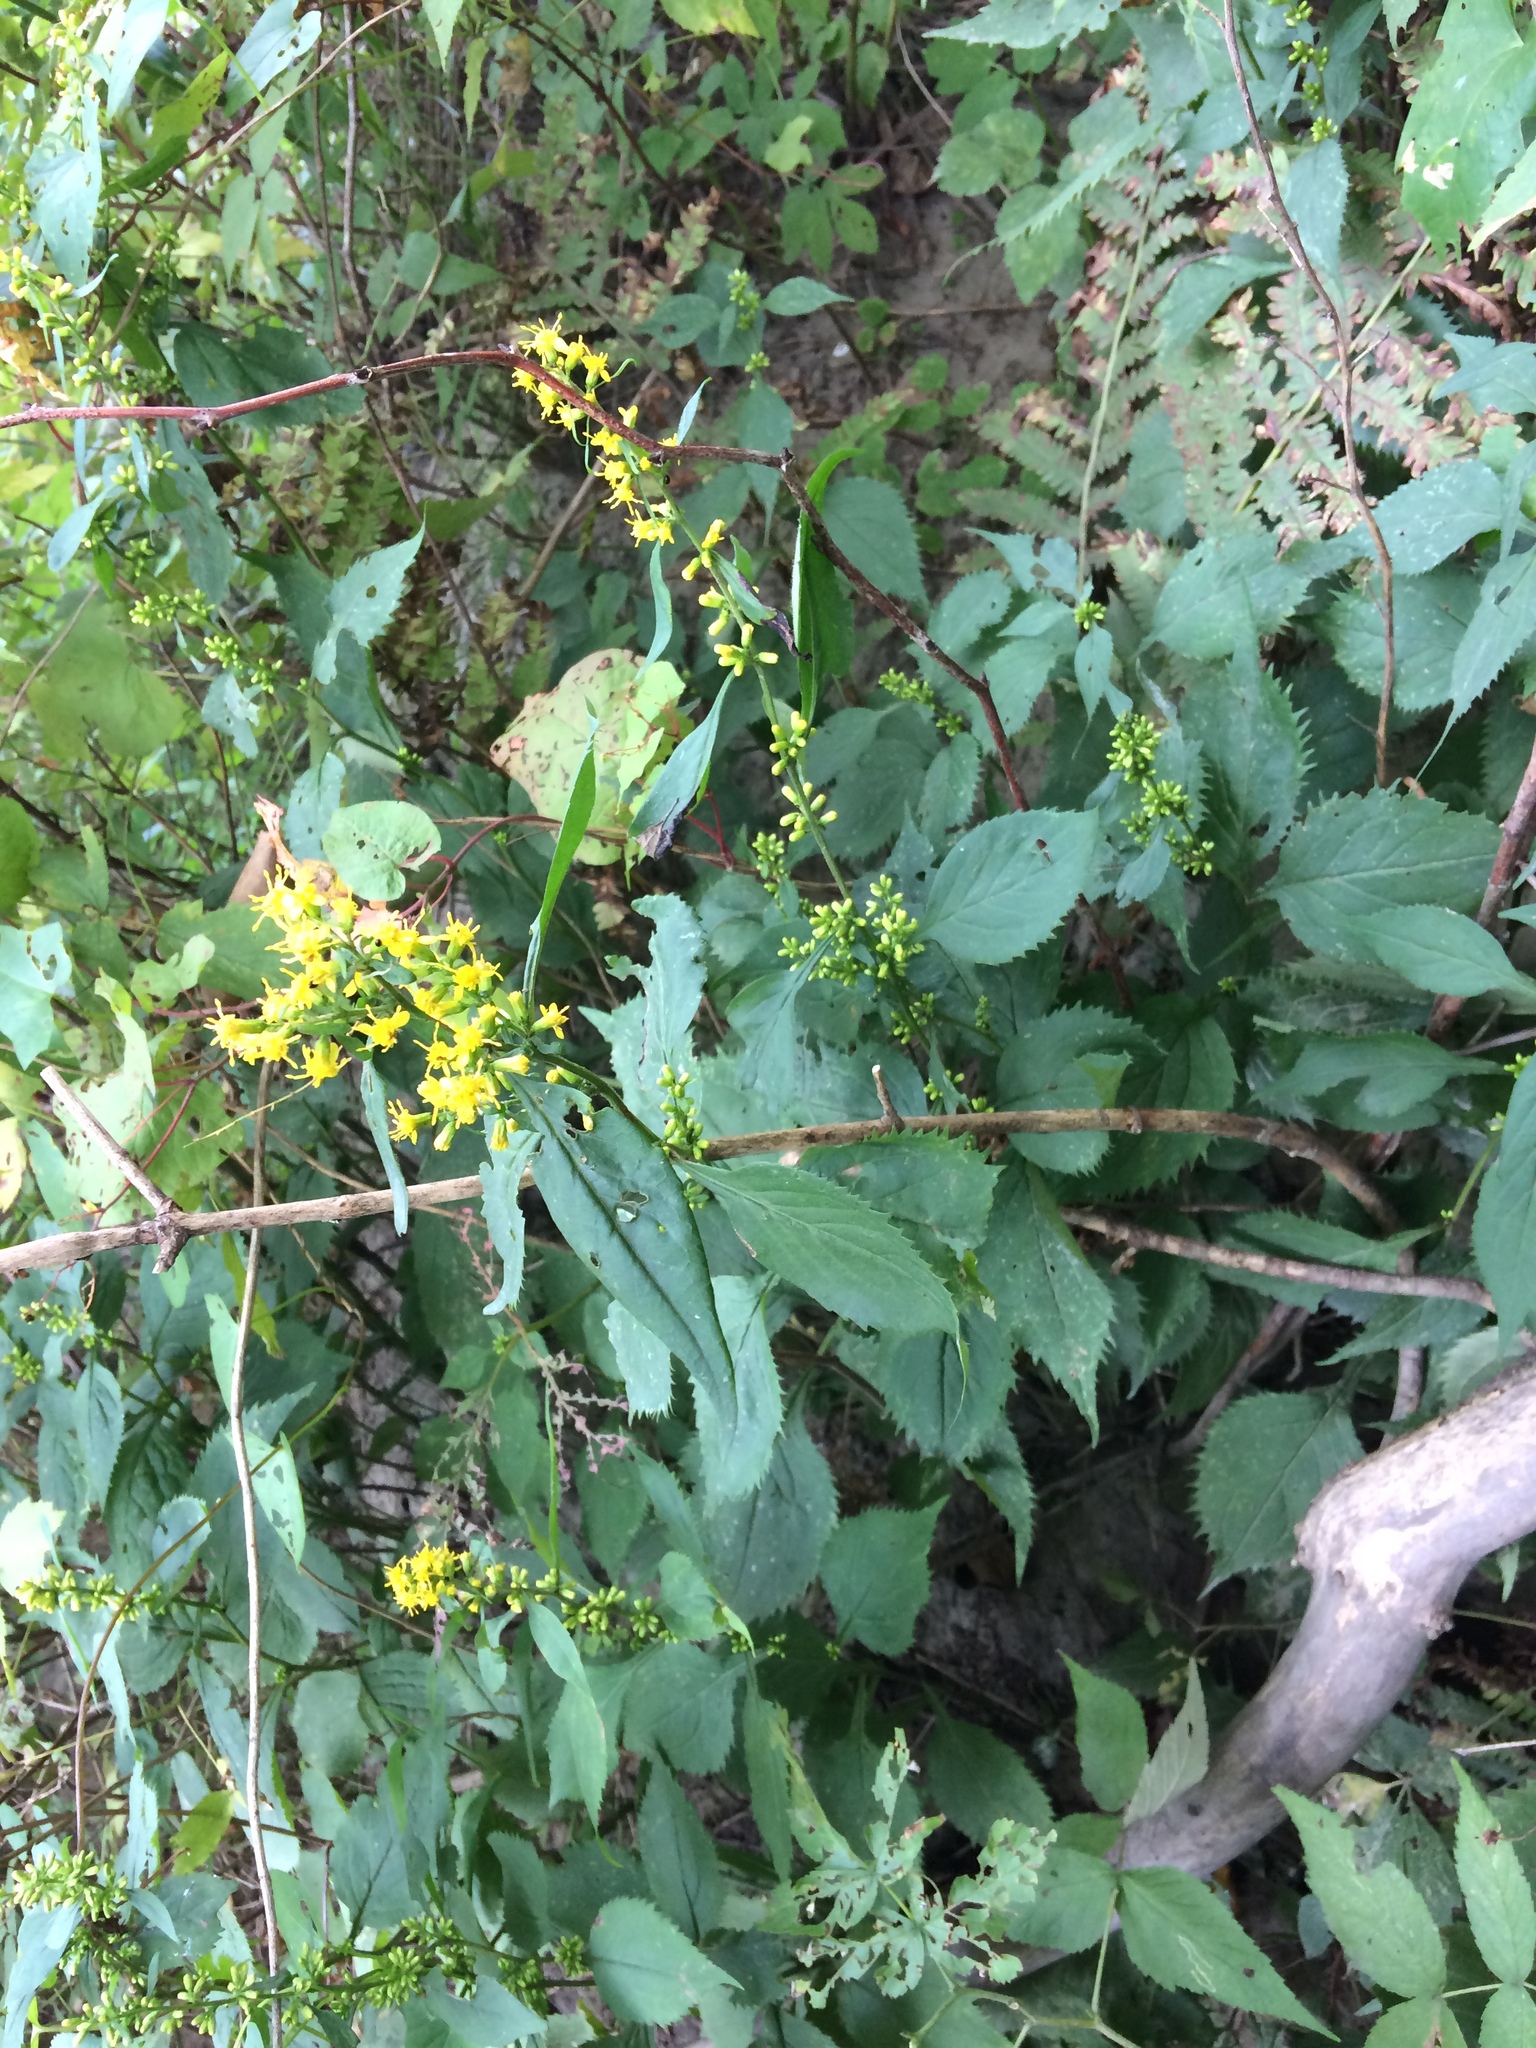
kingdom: Plantae
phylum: Tracheophyta
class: Magnoliopsida
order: Asterales
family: Asteraceae
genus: Solidago
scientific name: Solidago flexicaulis
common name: Zig-zag goldenrod
